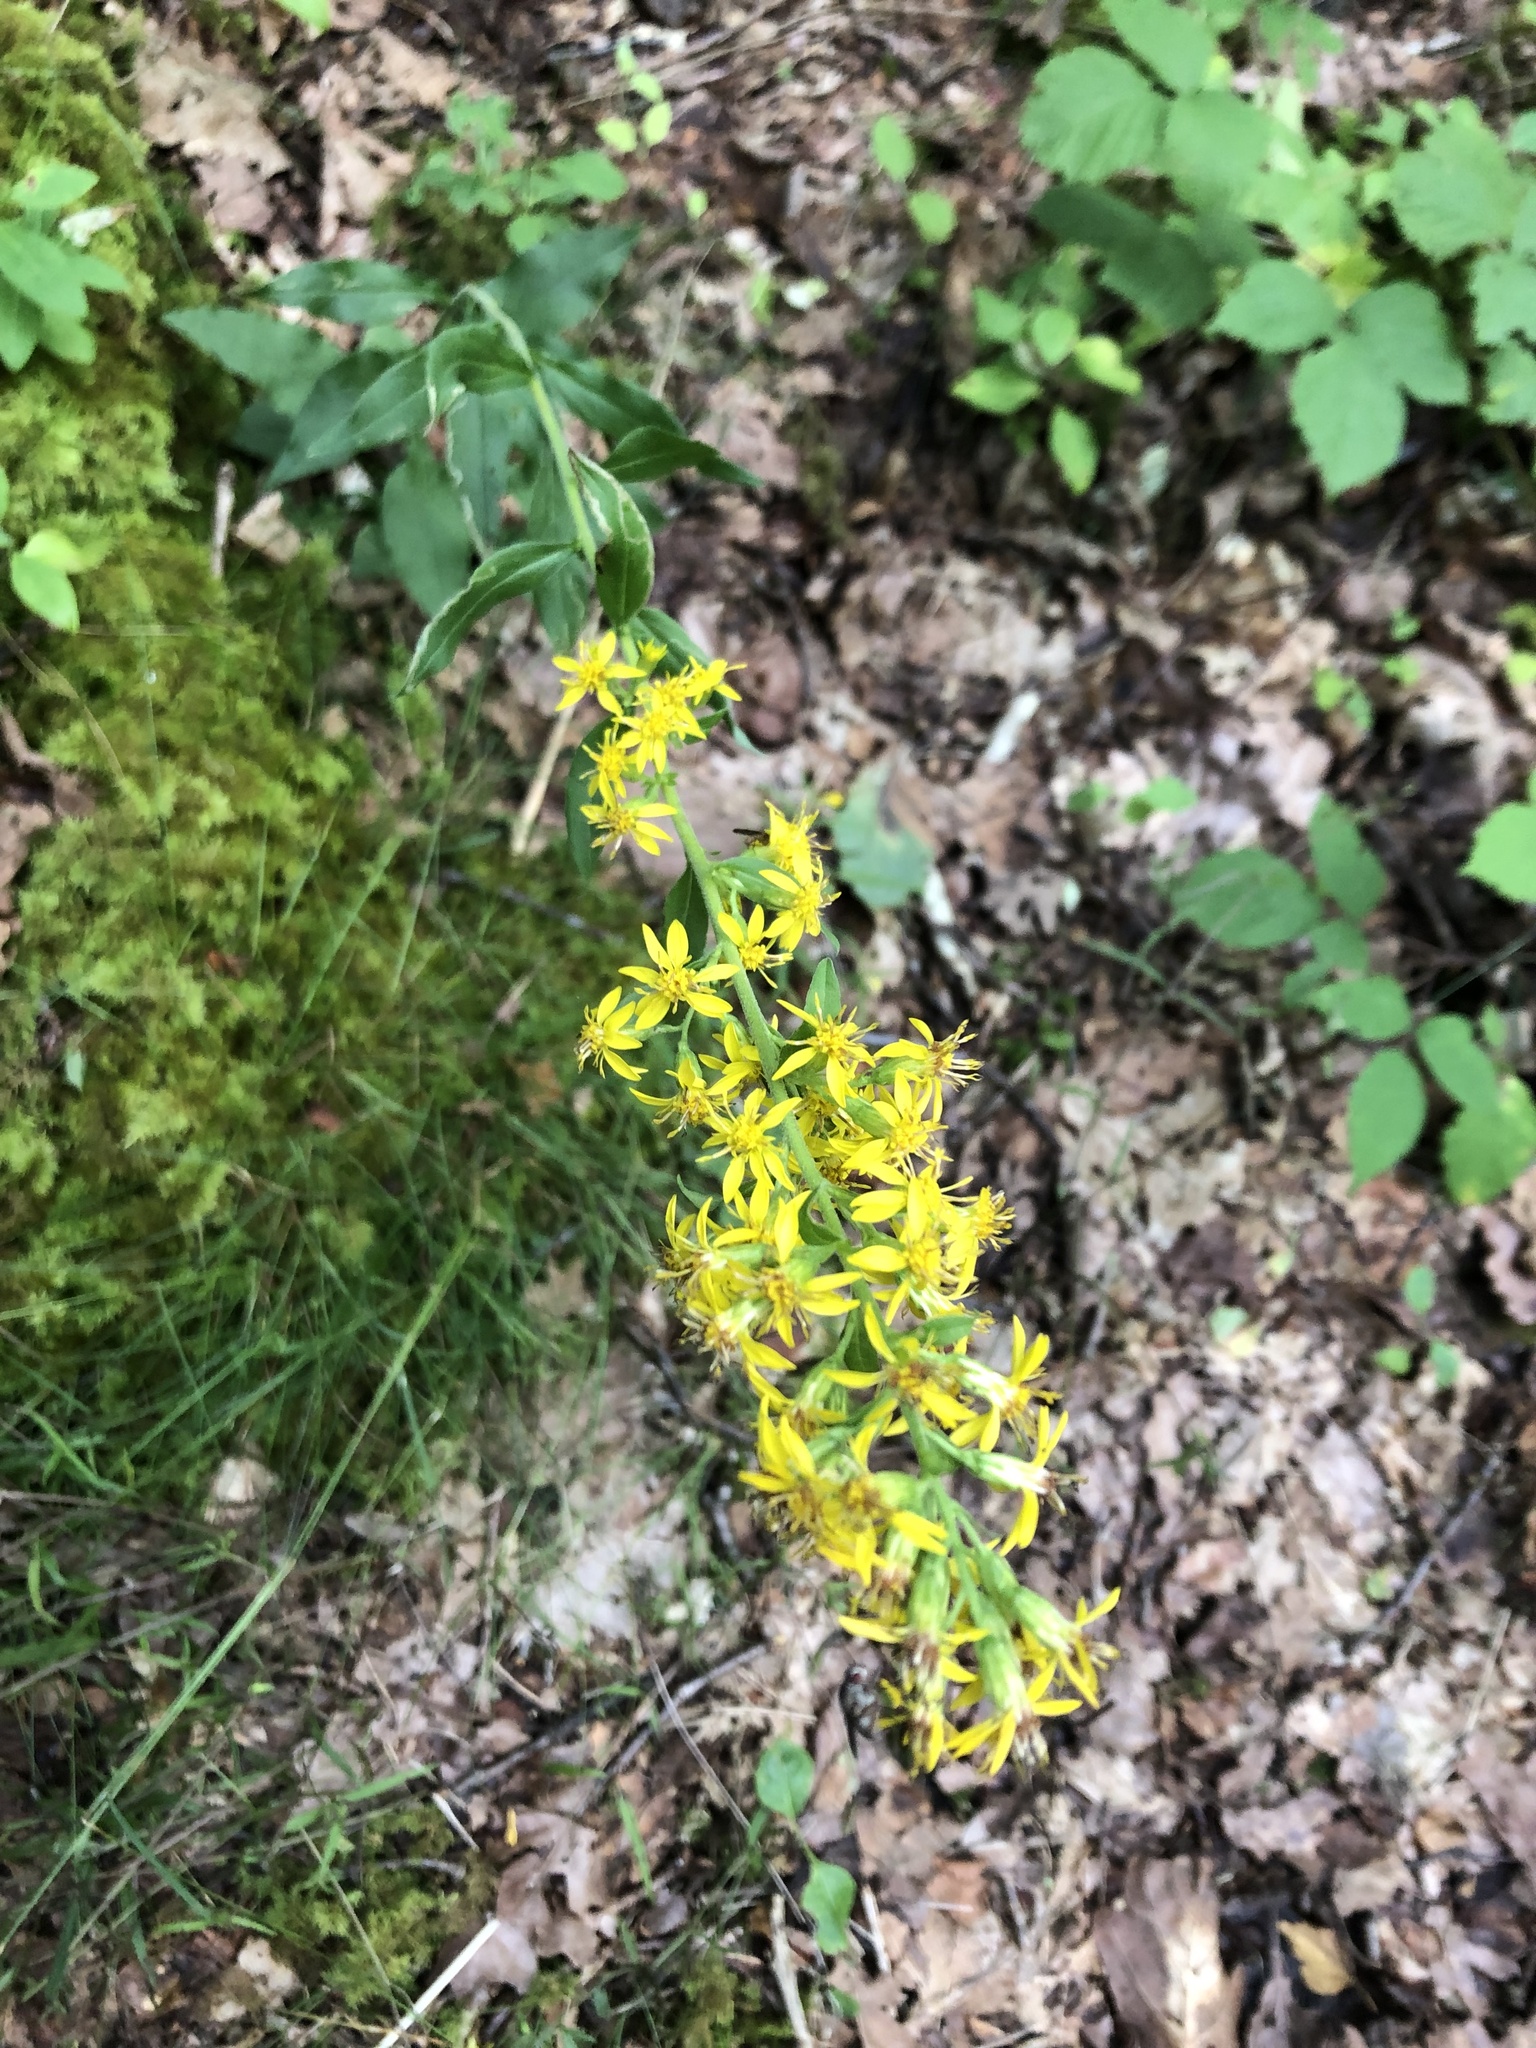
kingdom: Plantae
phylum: Tracheophyta
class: Magnoliopsida
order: Asterales
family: Asteraceae
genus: Solidago
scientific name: Solidago virgaurea
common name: Goldenrod
